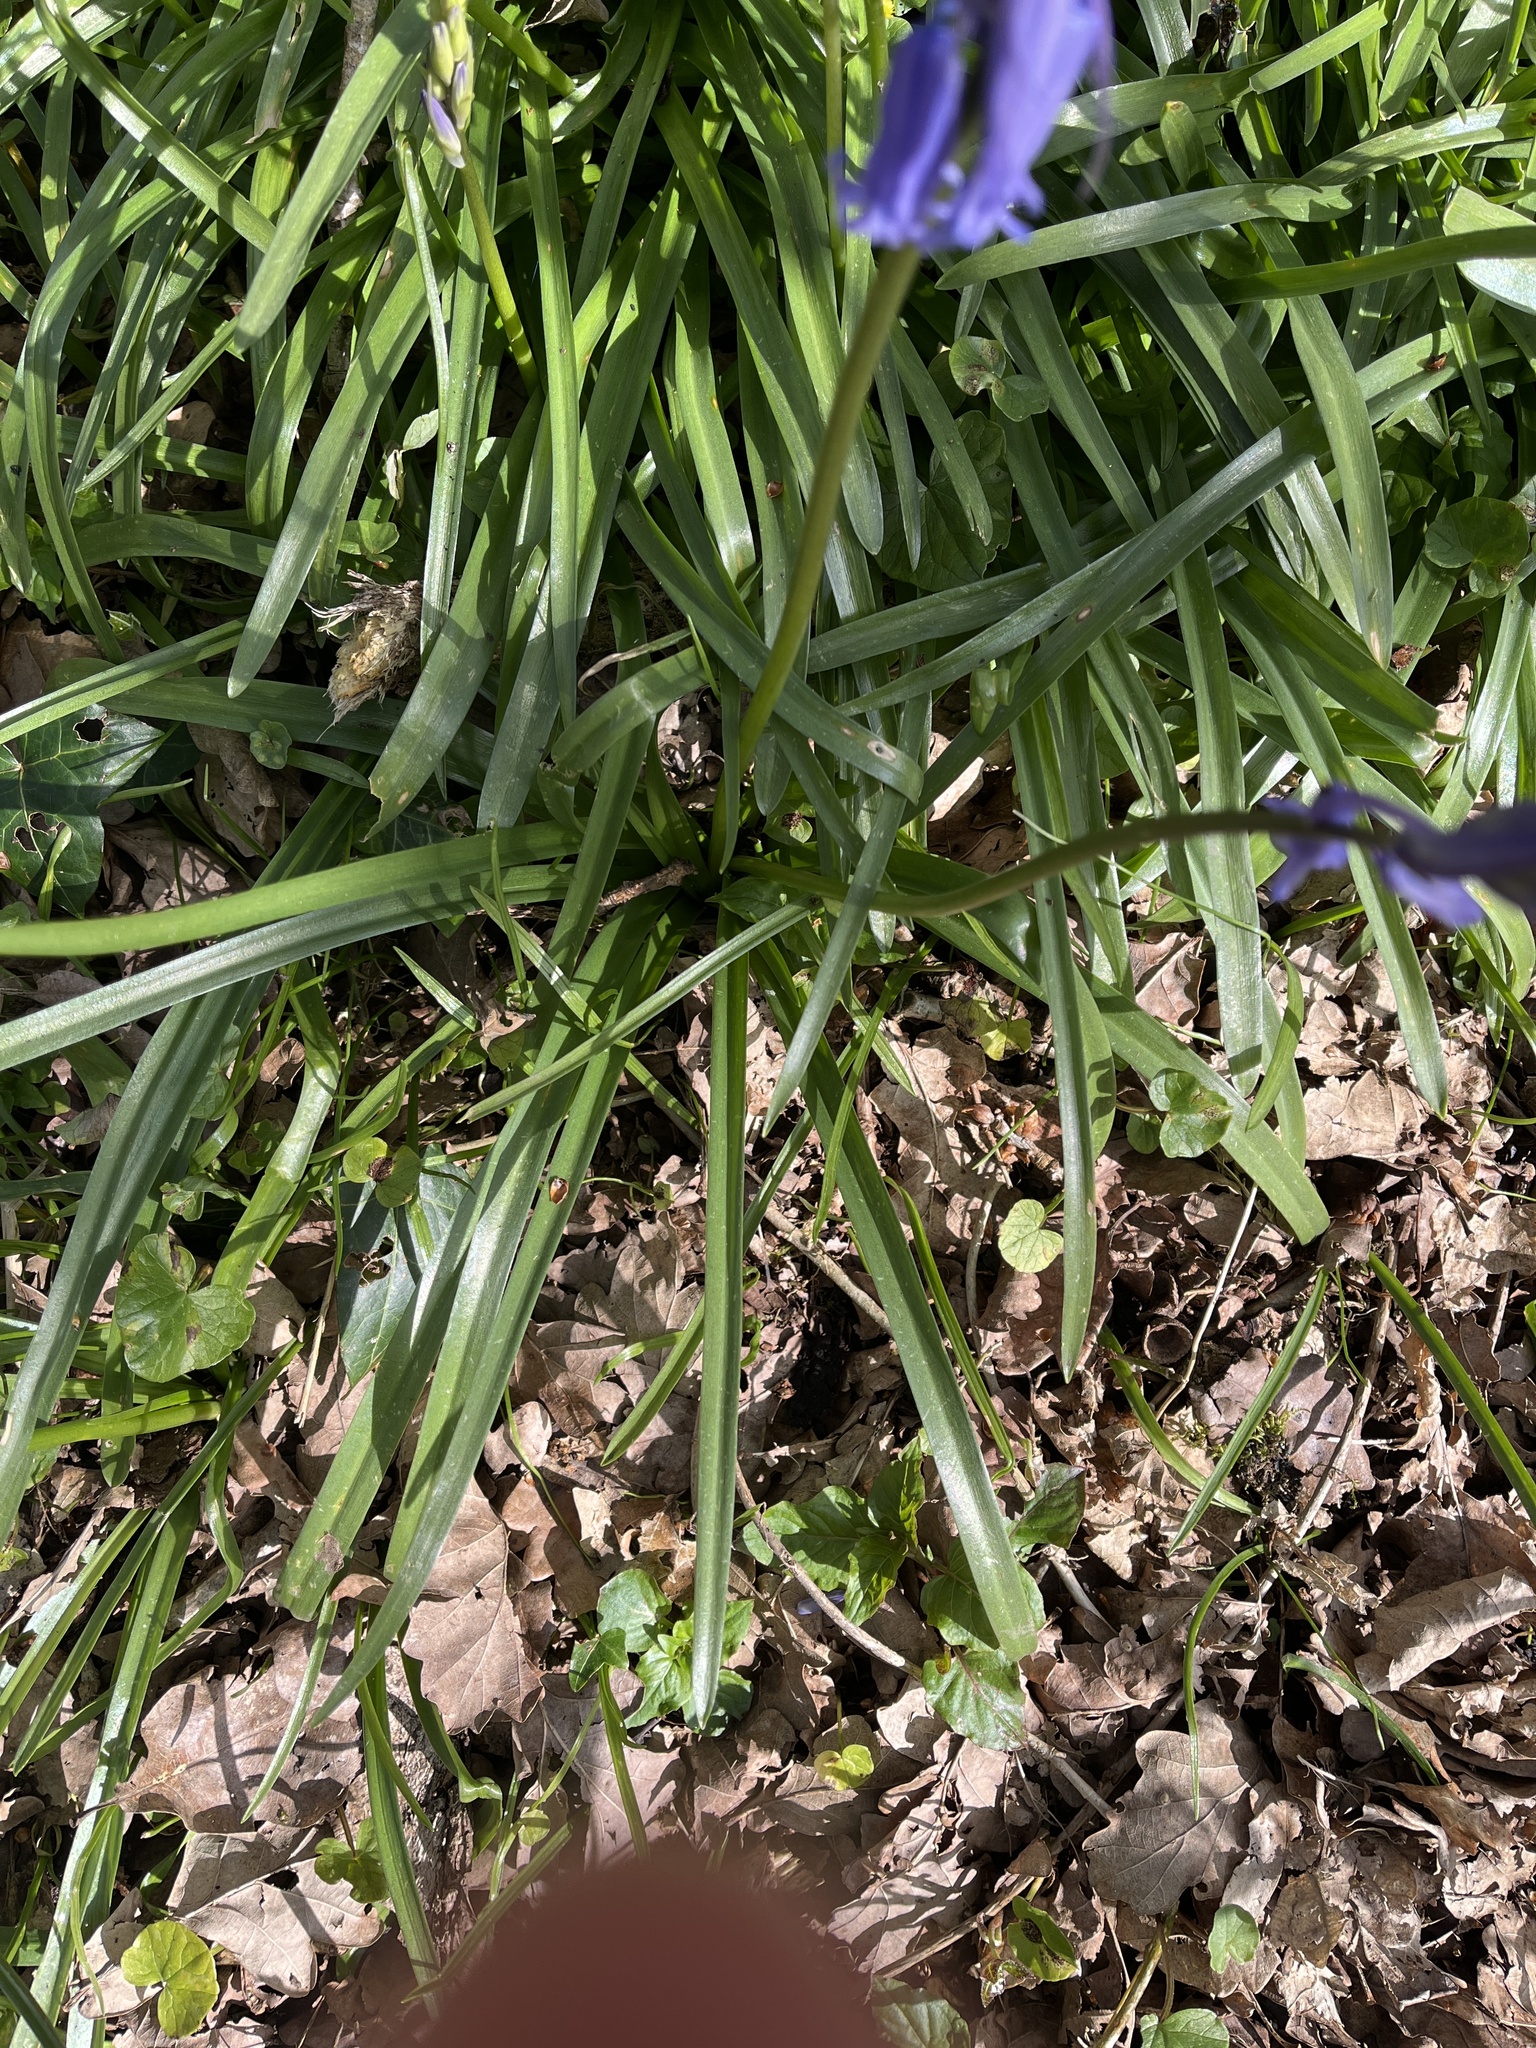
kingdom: Plantae
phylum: Tracheophyta
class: Liliopsida
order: Asparagales
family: Asparagaceae
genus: Hyacinthoides
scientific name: Hyacinthoides non-scripta
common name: Bluebell
